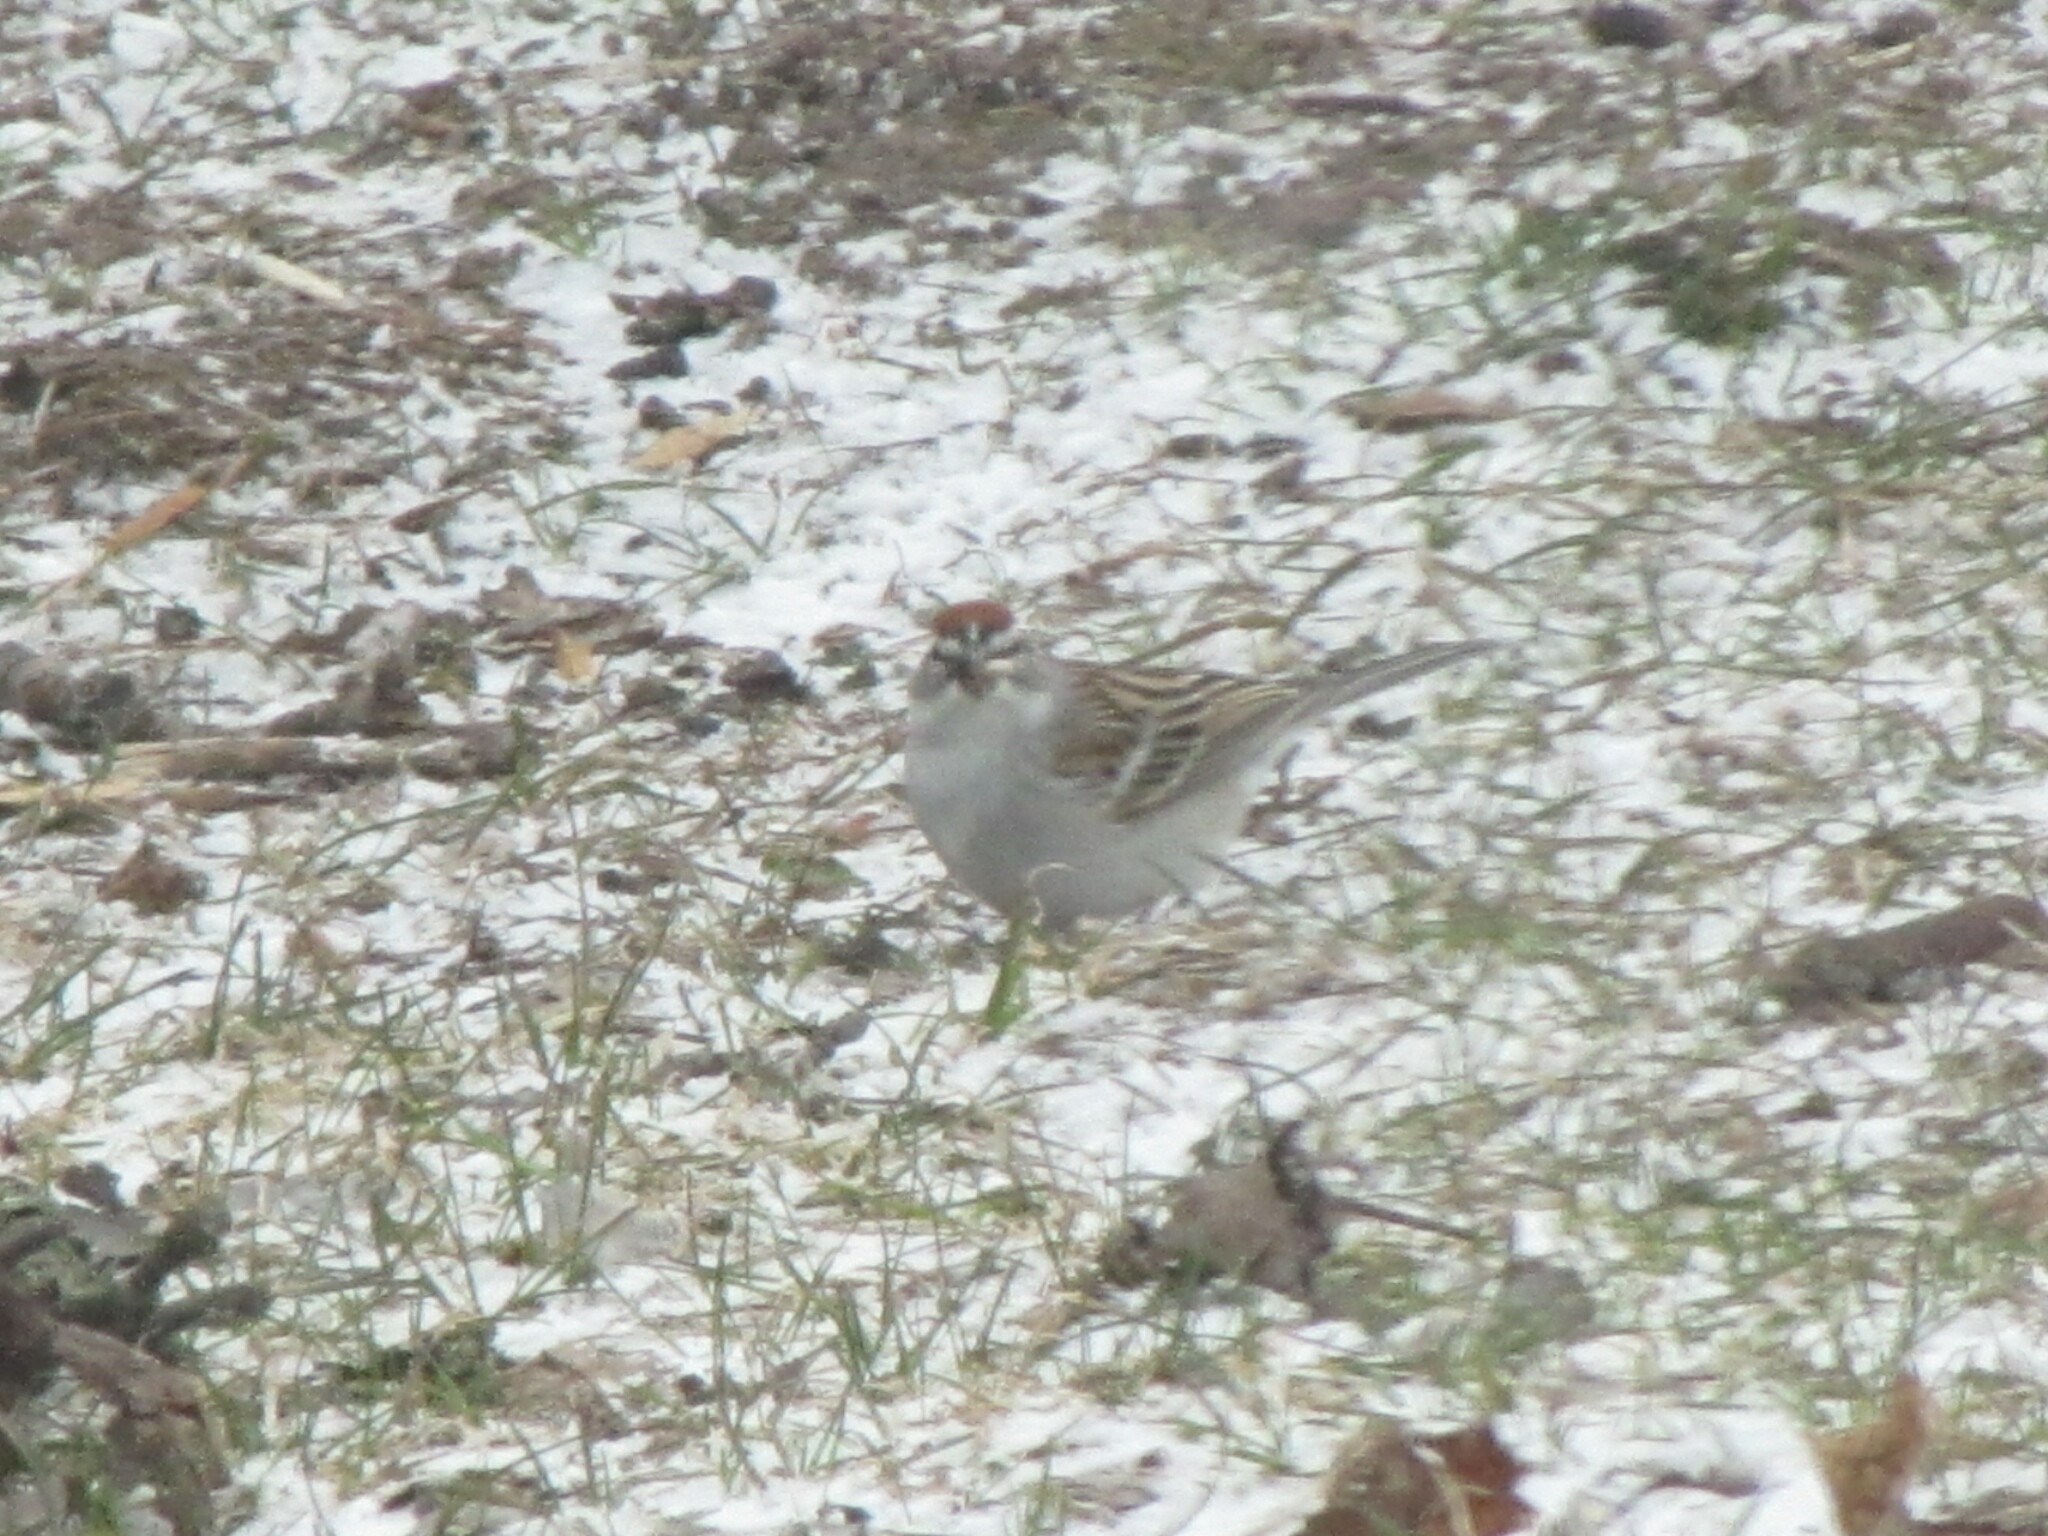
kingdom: Animalia
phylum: Chordata
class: Aves
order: Passeriformes
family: Passerellidae
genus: Spizella
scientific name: Spizella passerina
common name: Chipping sparrow
